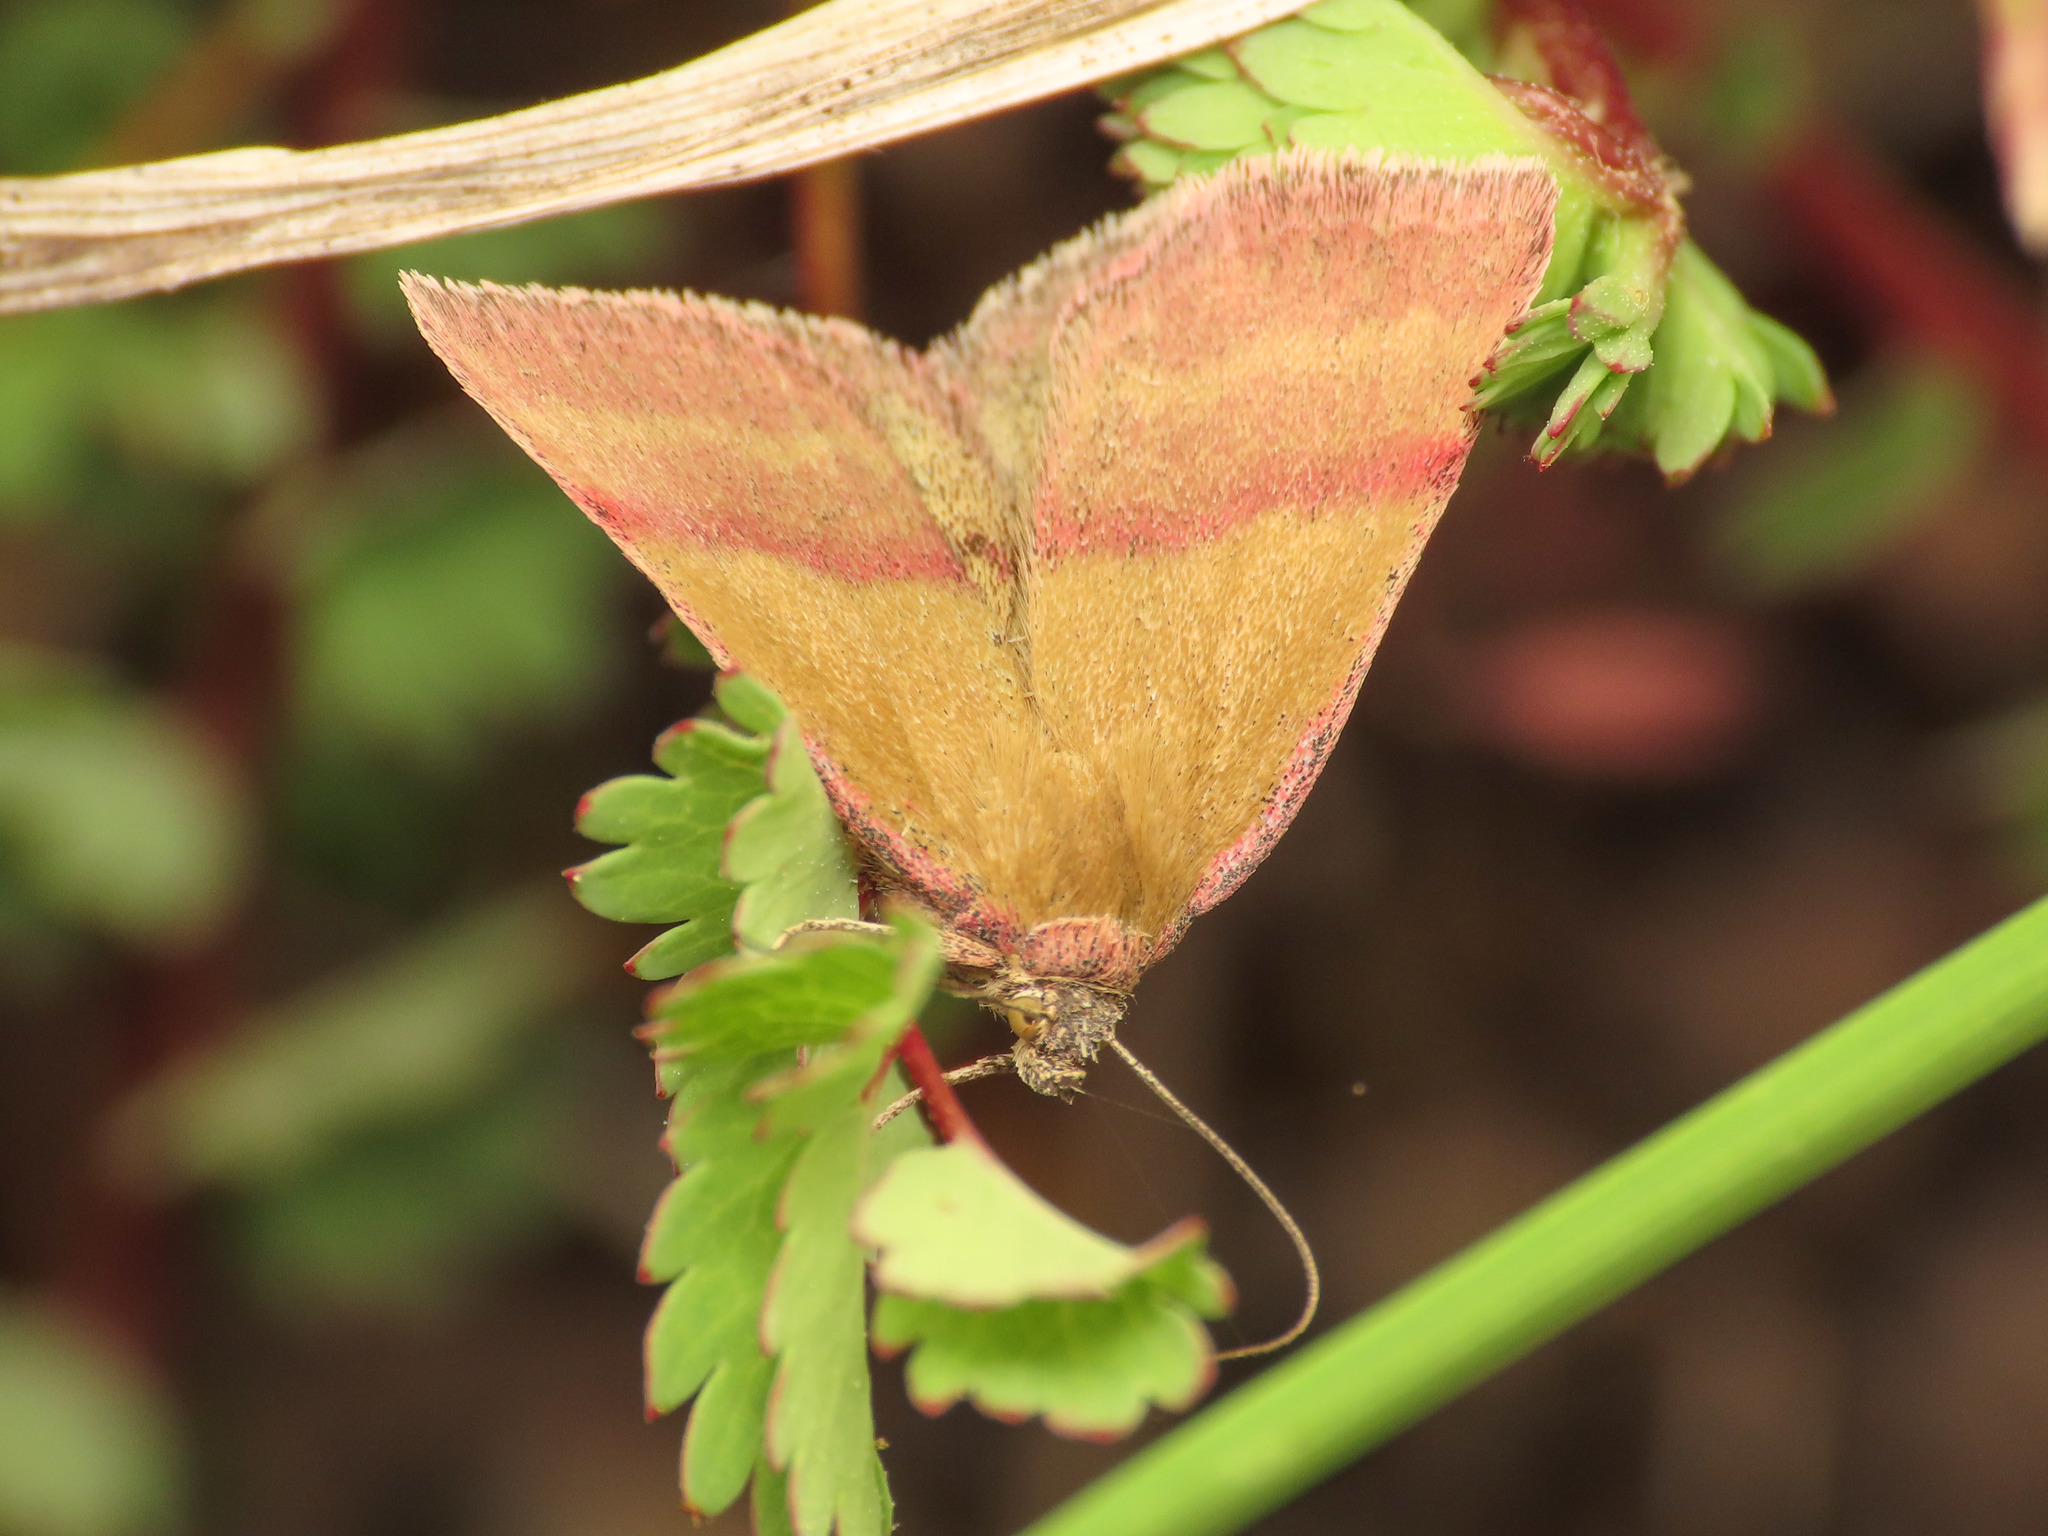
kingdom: Animalia
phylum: Arthropoda
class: Insecta
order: Lepidoptera
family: Erebidae
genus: Phytometra
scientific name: Phytometra viridaria
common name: Small purple-barred
